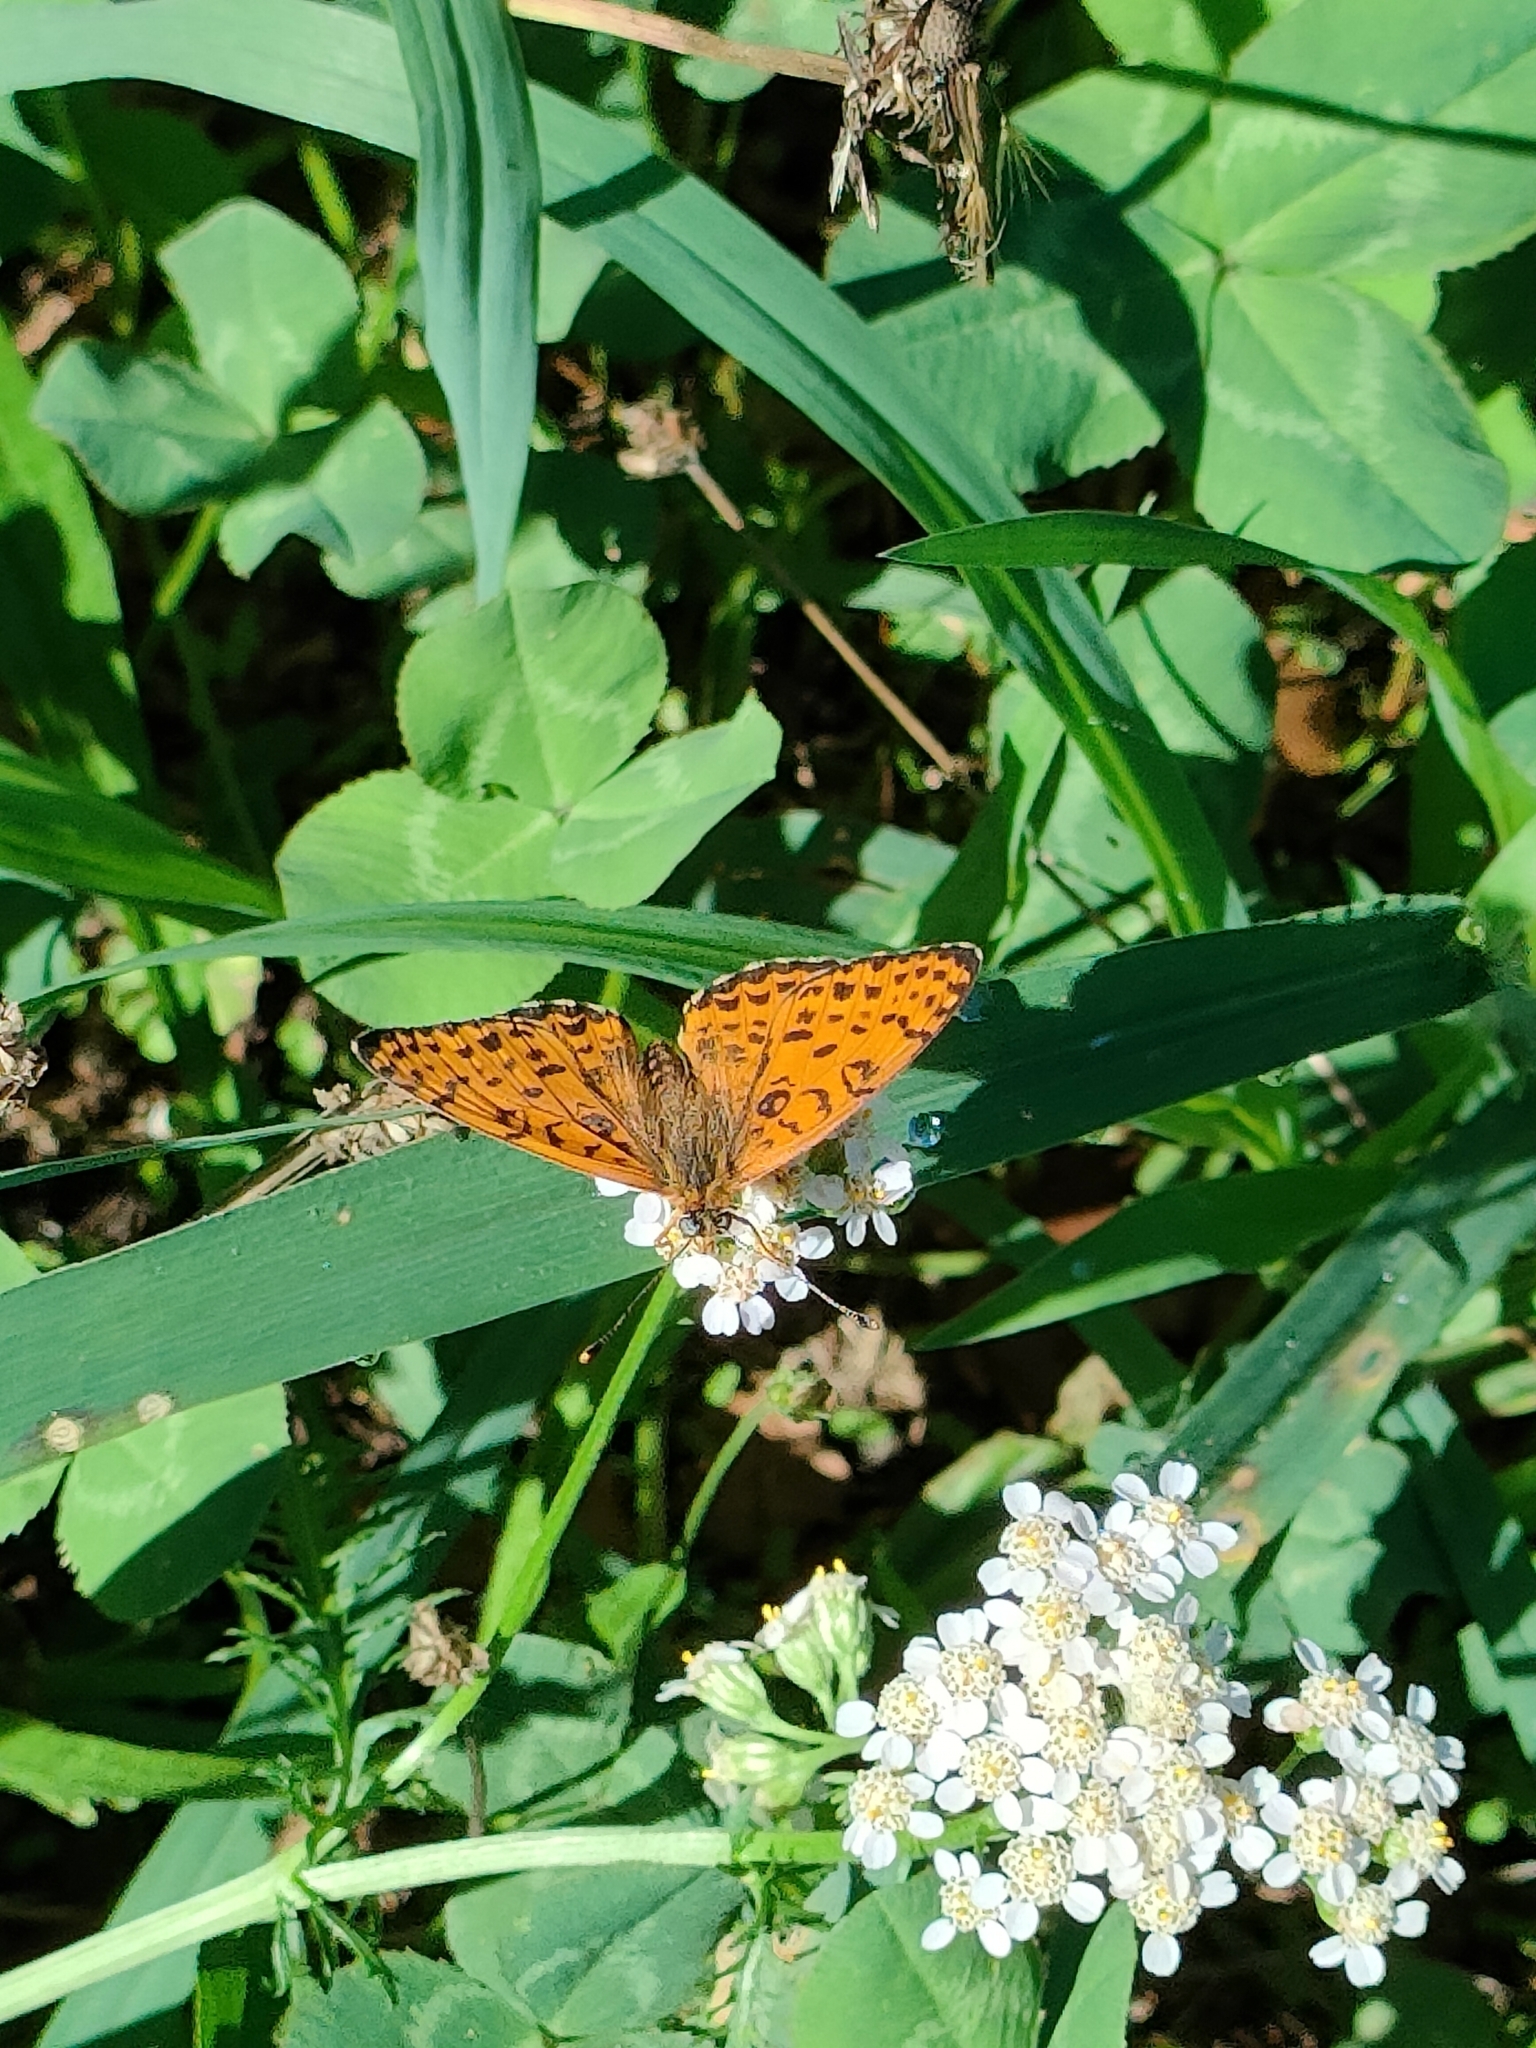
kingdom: Animalia
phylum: Arthropoda
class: Insecta
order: Lepidoptera
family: Nymphalidae
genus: Melitaea
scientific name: Melitaea didyma
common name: Spotted fritillary
